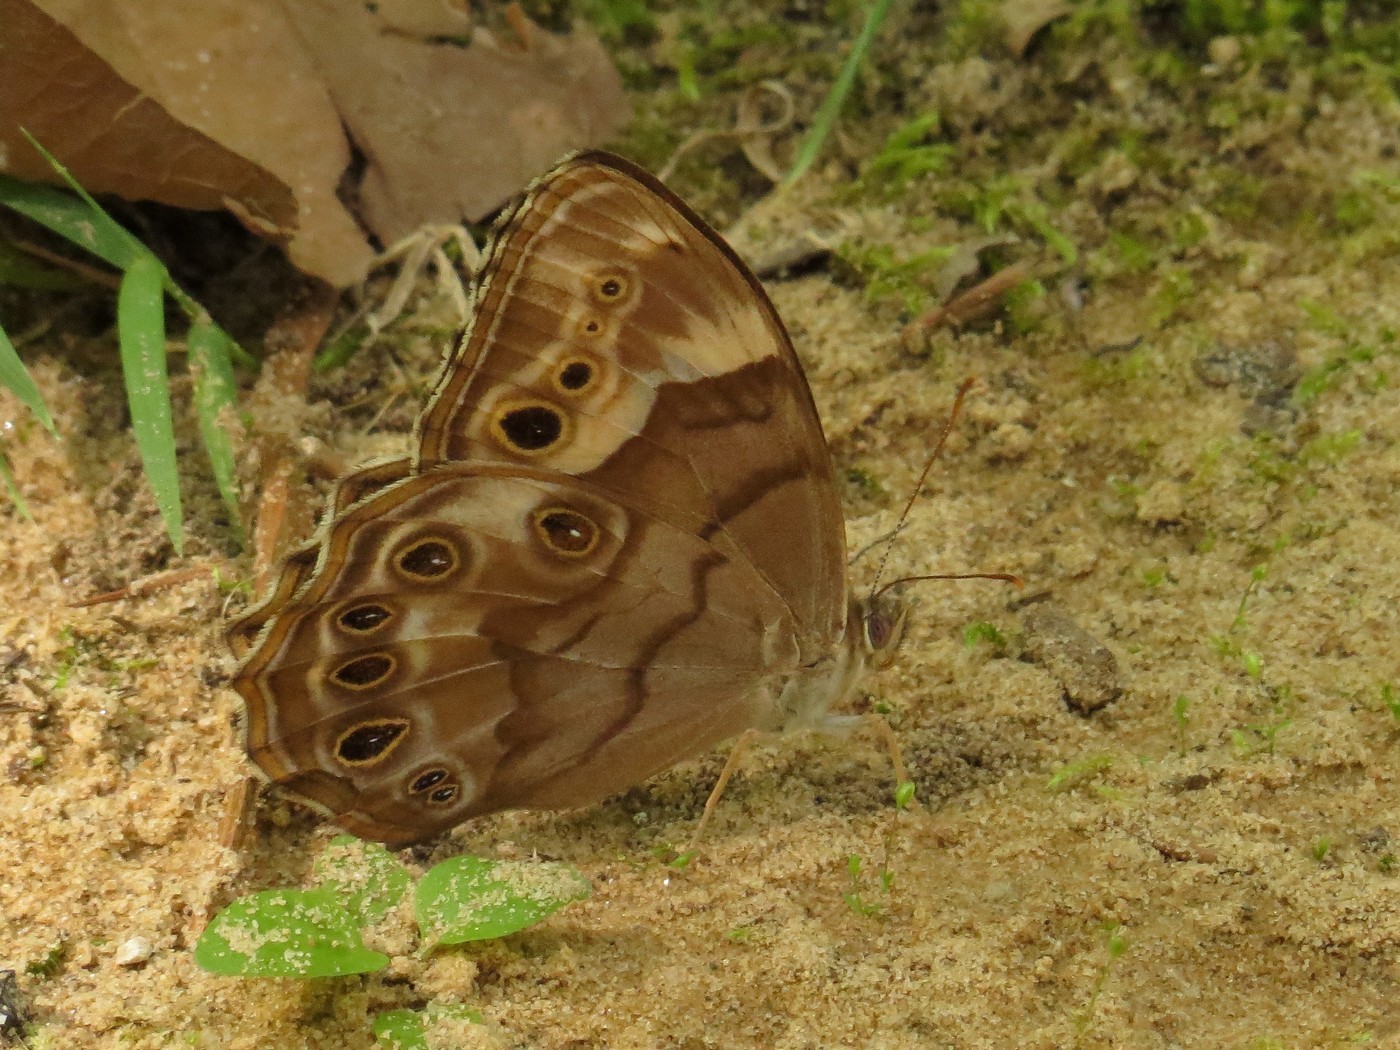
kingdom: Animalia
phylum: Arthropoda
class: Insecta
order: Lepidoptera
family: Nymphalidae
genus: Enodia
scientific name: Enodia portlandia
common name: Southern pearly-eye
